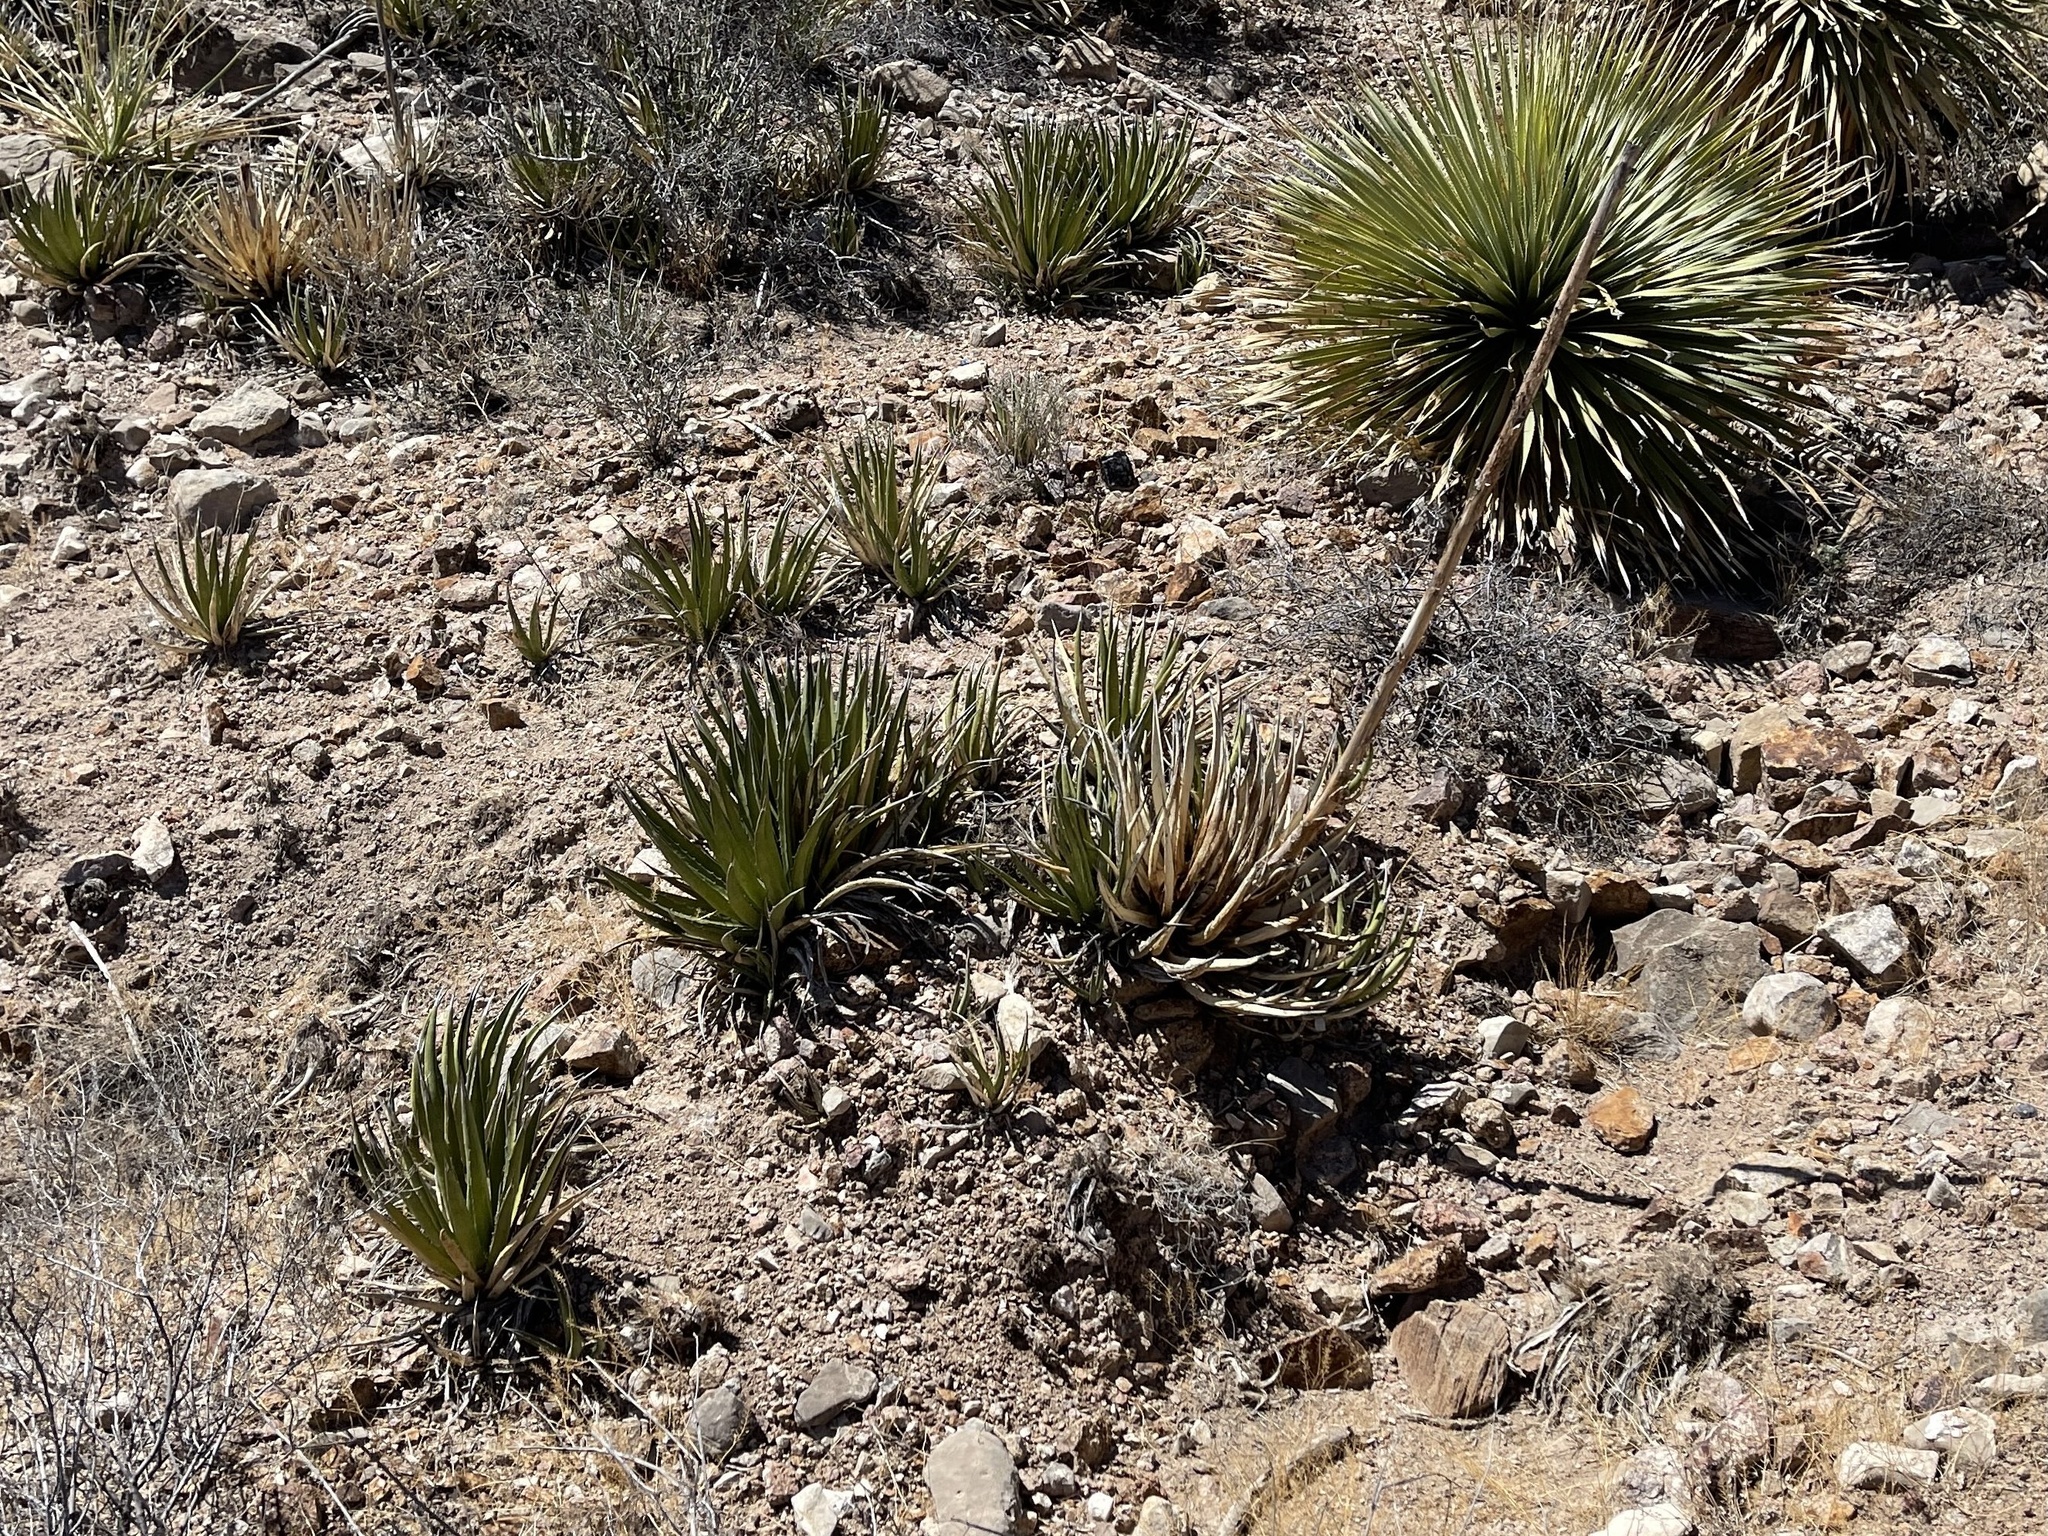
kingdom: Plantae
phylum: Tracheophyta
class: Liliopsida
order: Asparagales
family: Asparagaceae
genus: Agave
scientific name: Agave lechuguilla
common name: Lecheguilla agave
